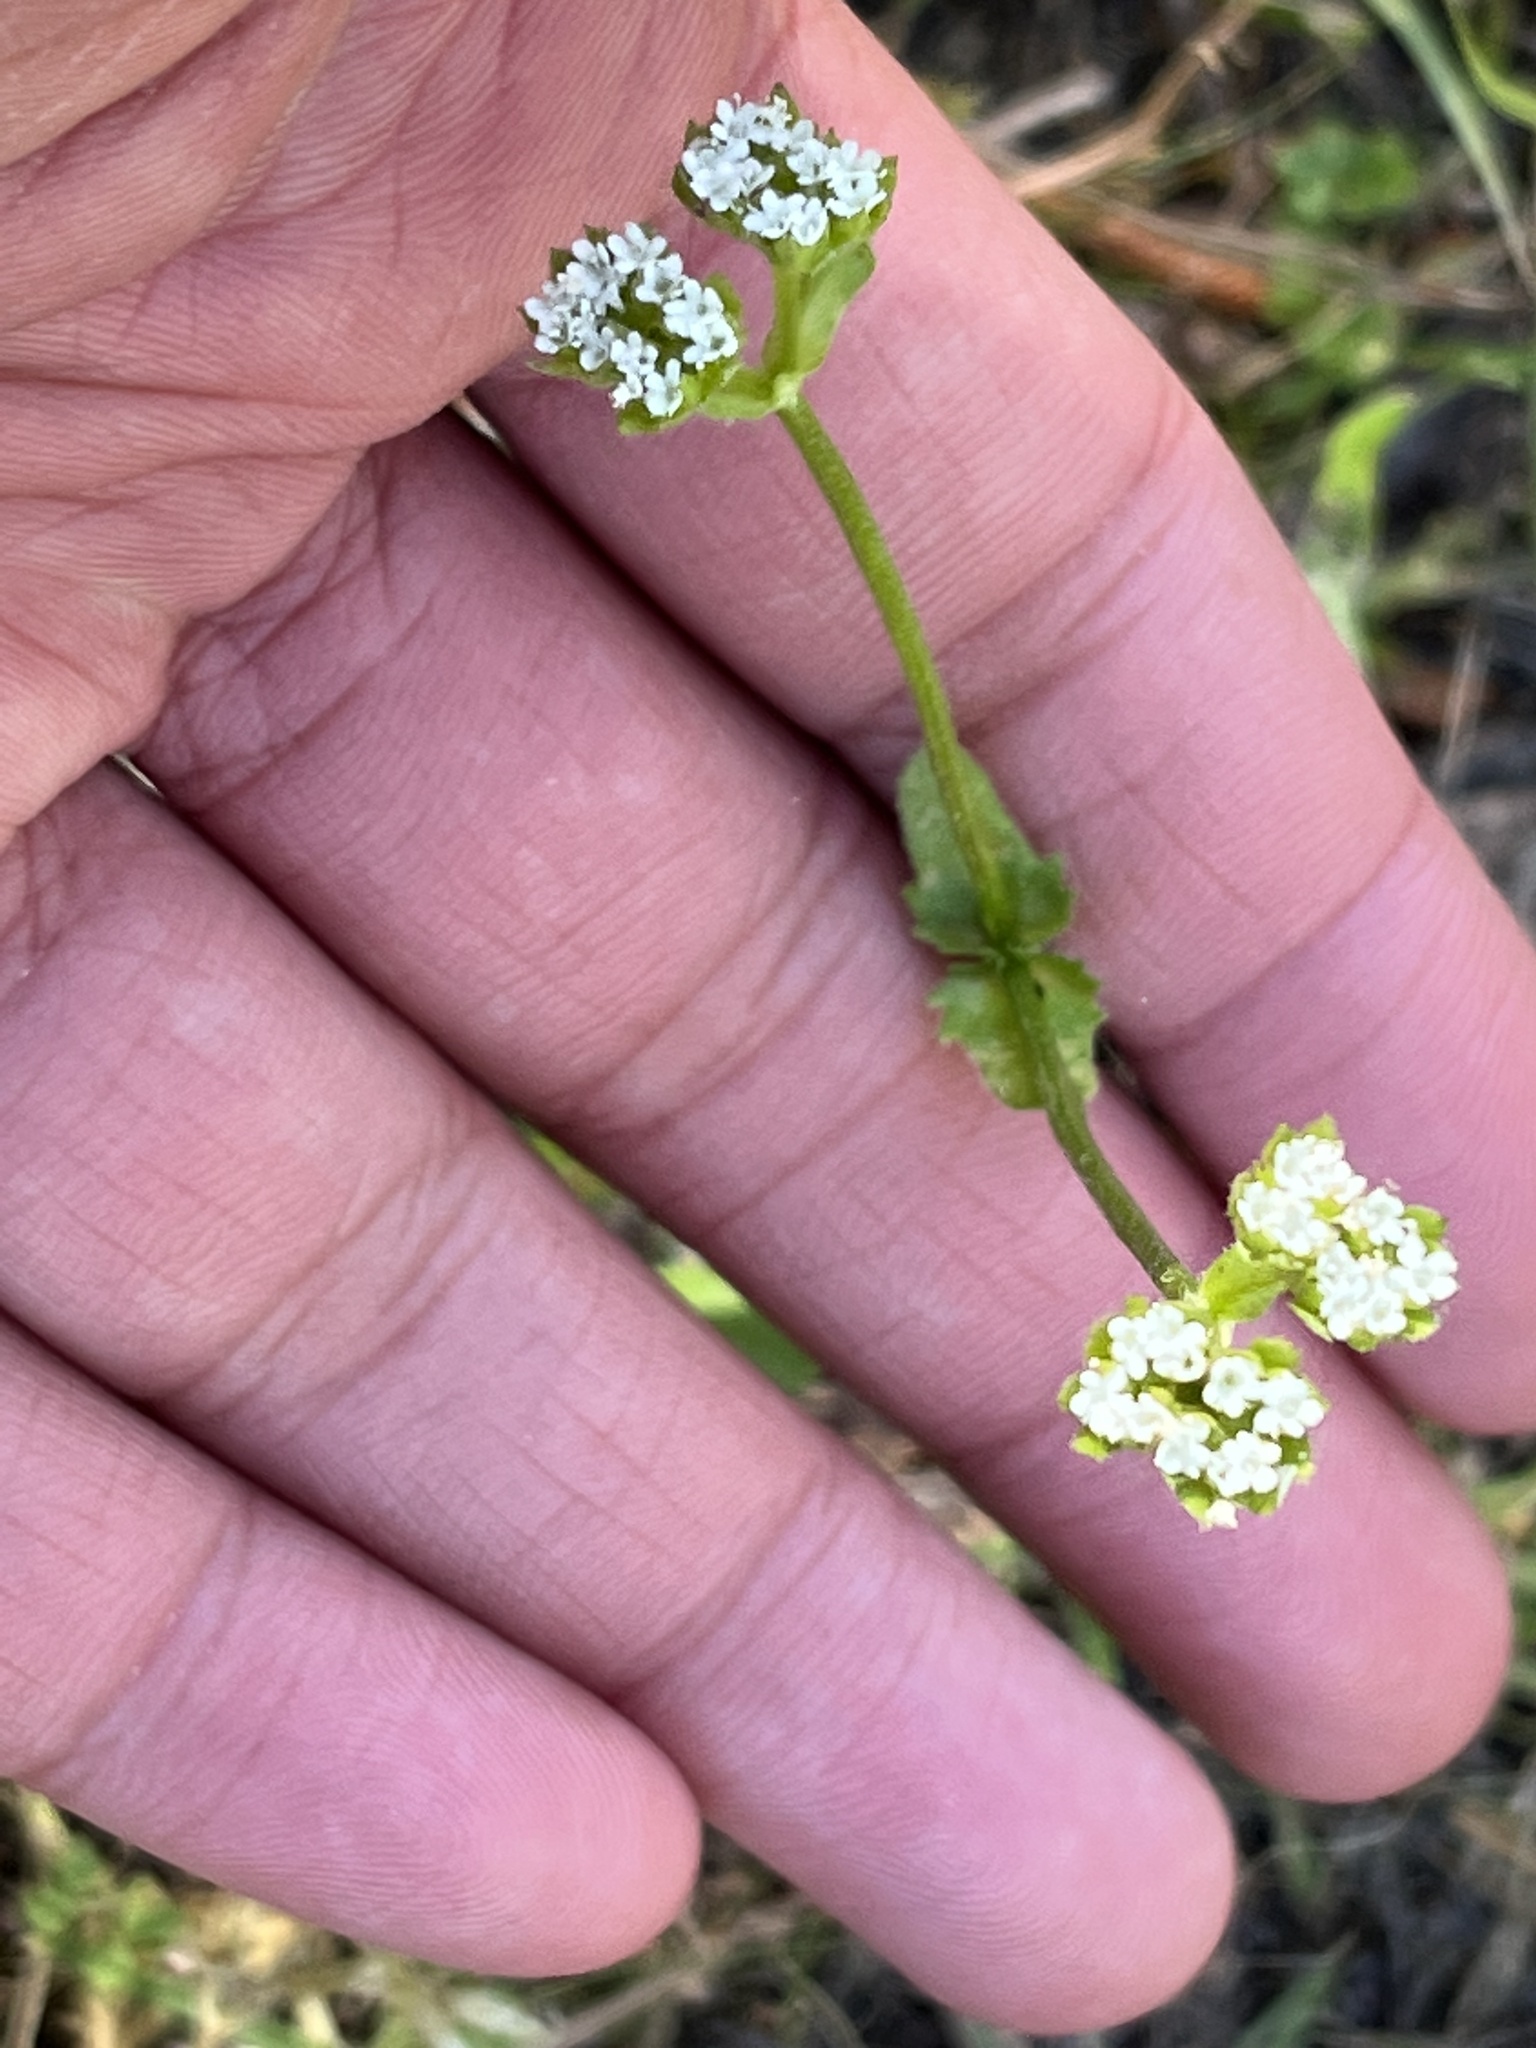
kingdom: Plantae
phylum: Tracheophyta
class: Magnoliopsida
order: Dipsacales
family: Caprifoliaceae
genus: Valerianella
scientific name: Valerianella radiata
